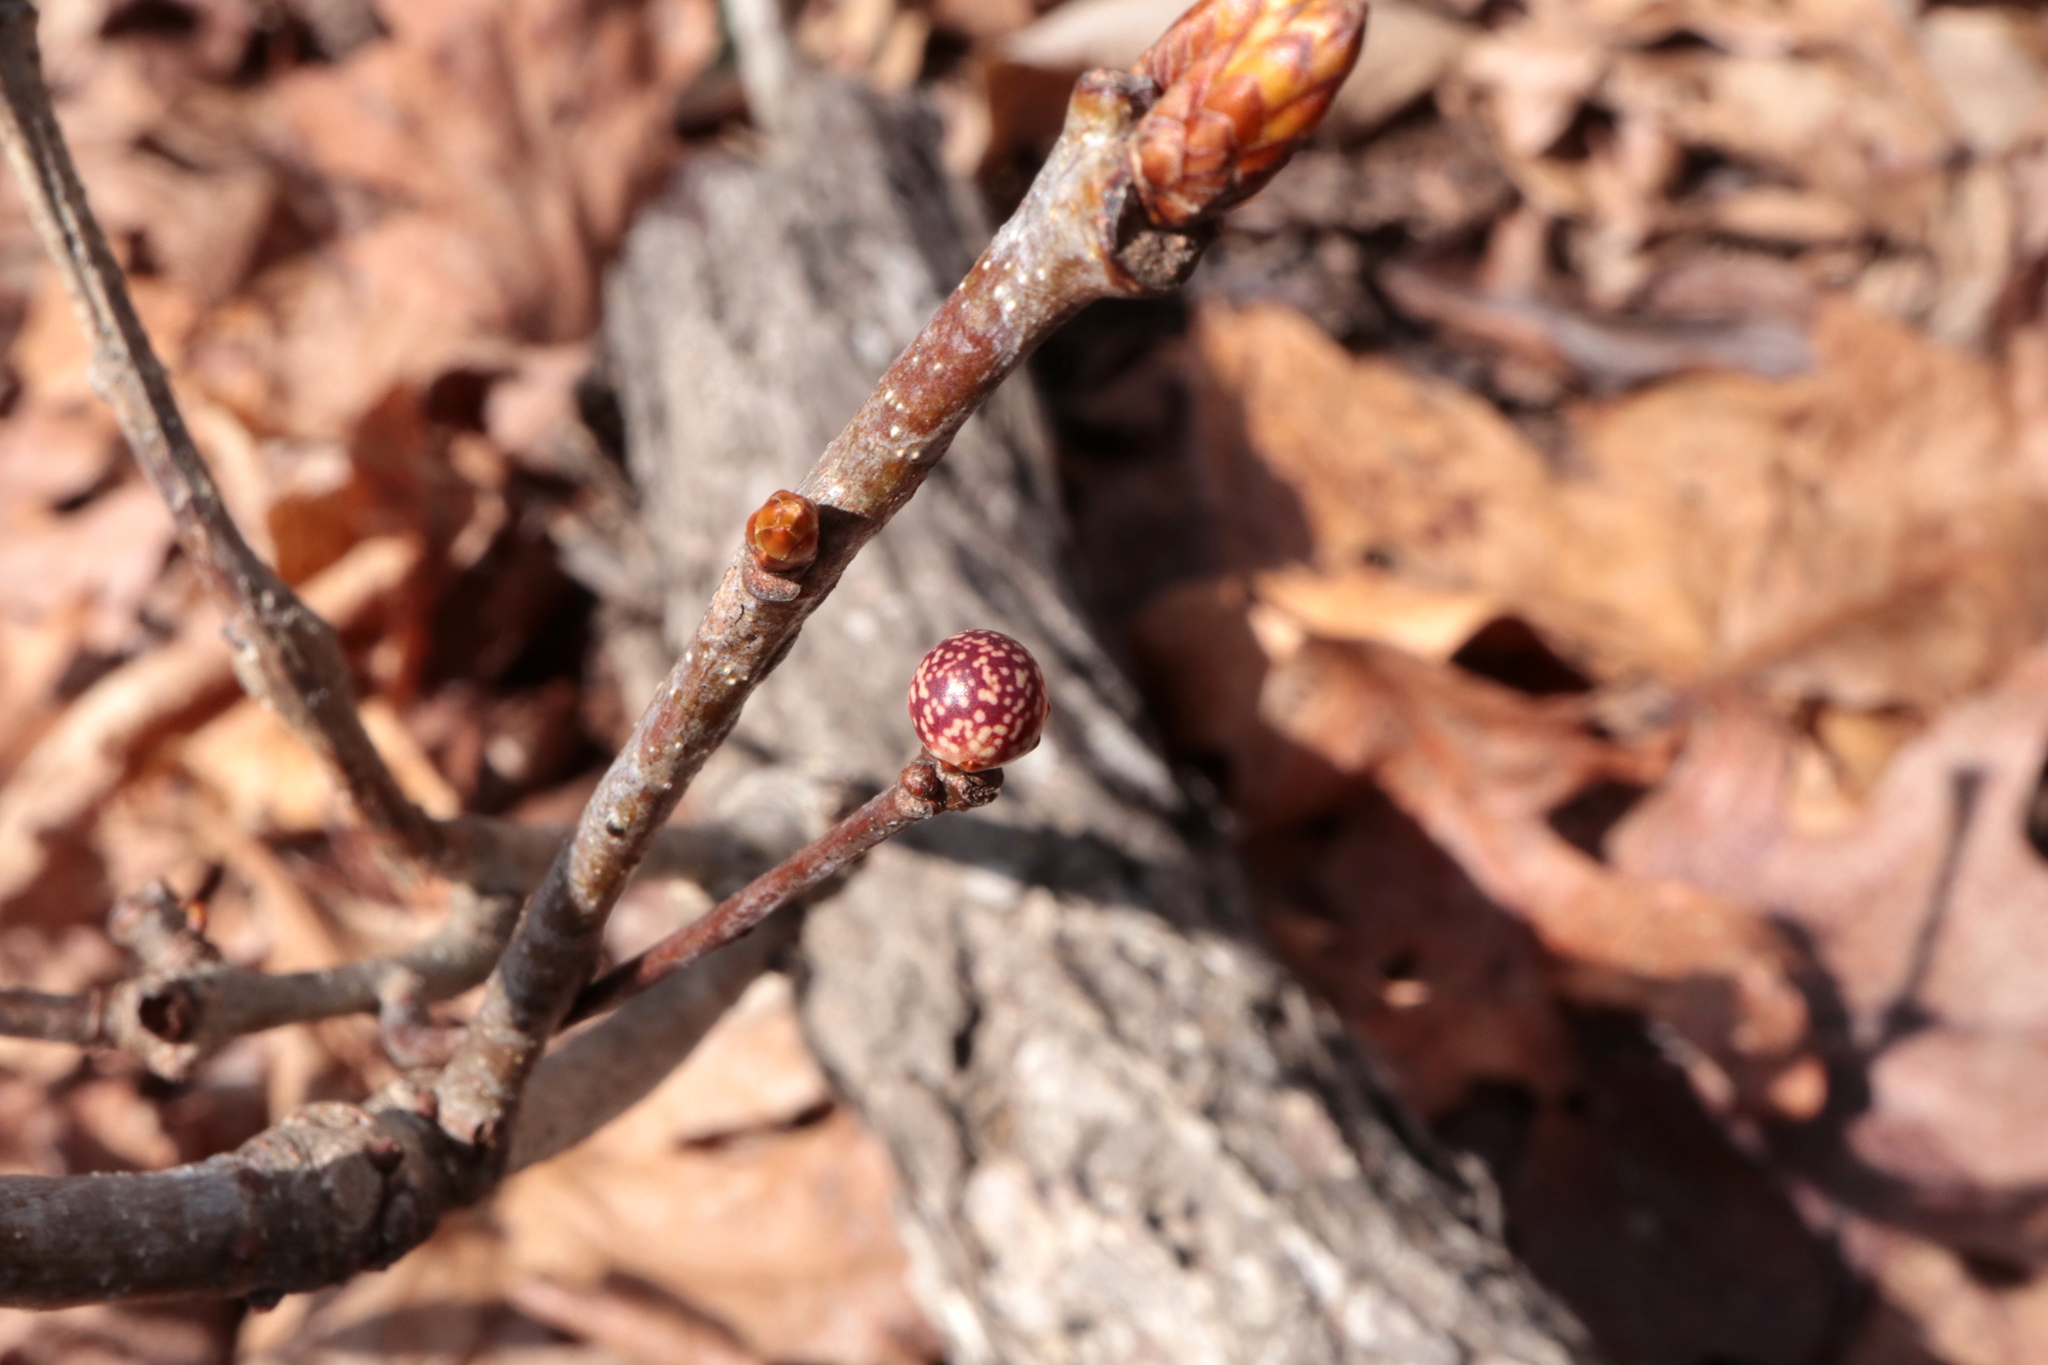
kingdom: Animalia
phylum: Arthropoda
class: Insecta
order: Hymenoptera
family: Cynipidae
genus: Andricus
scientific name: Andricus
